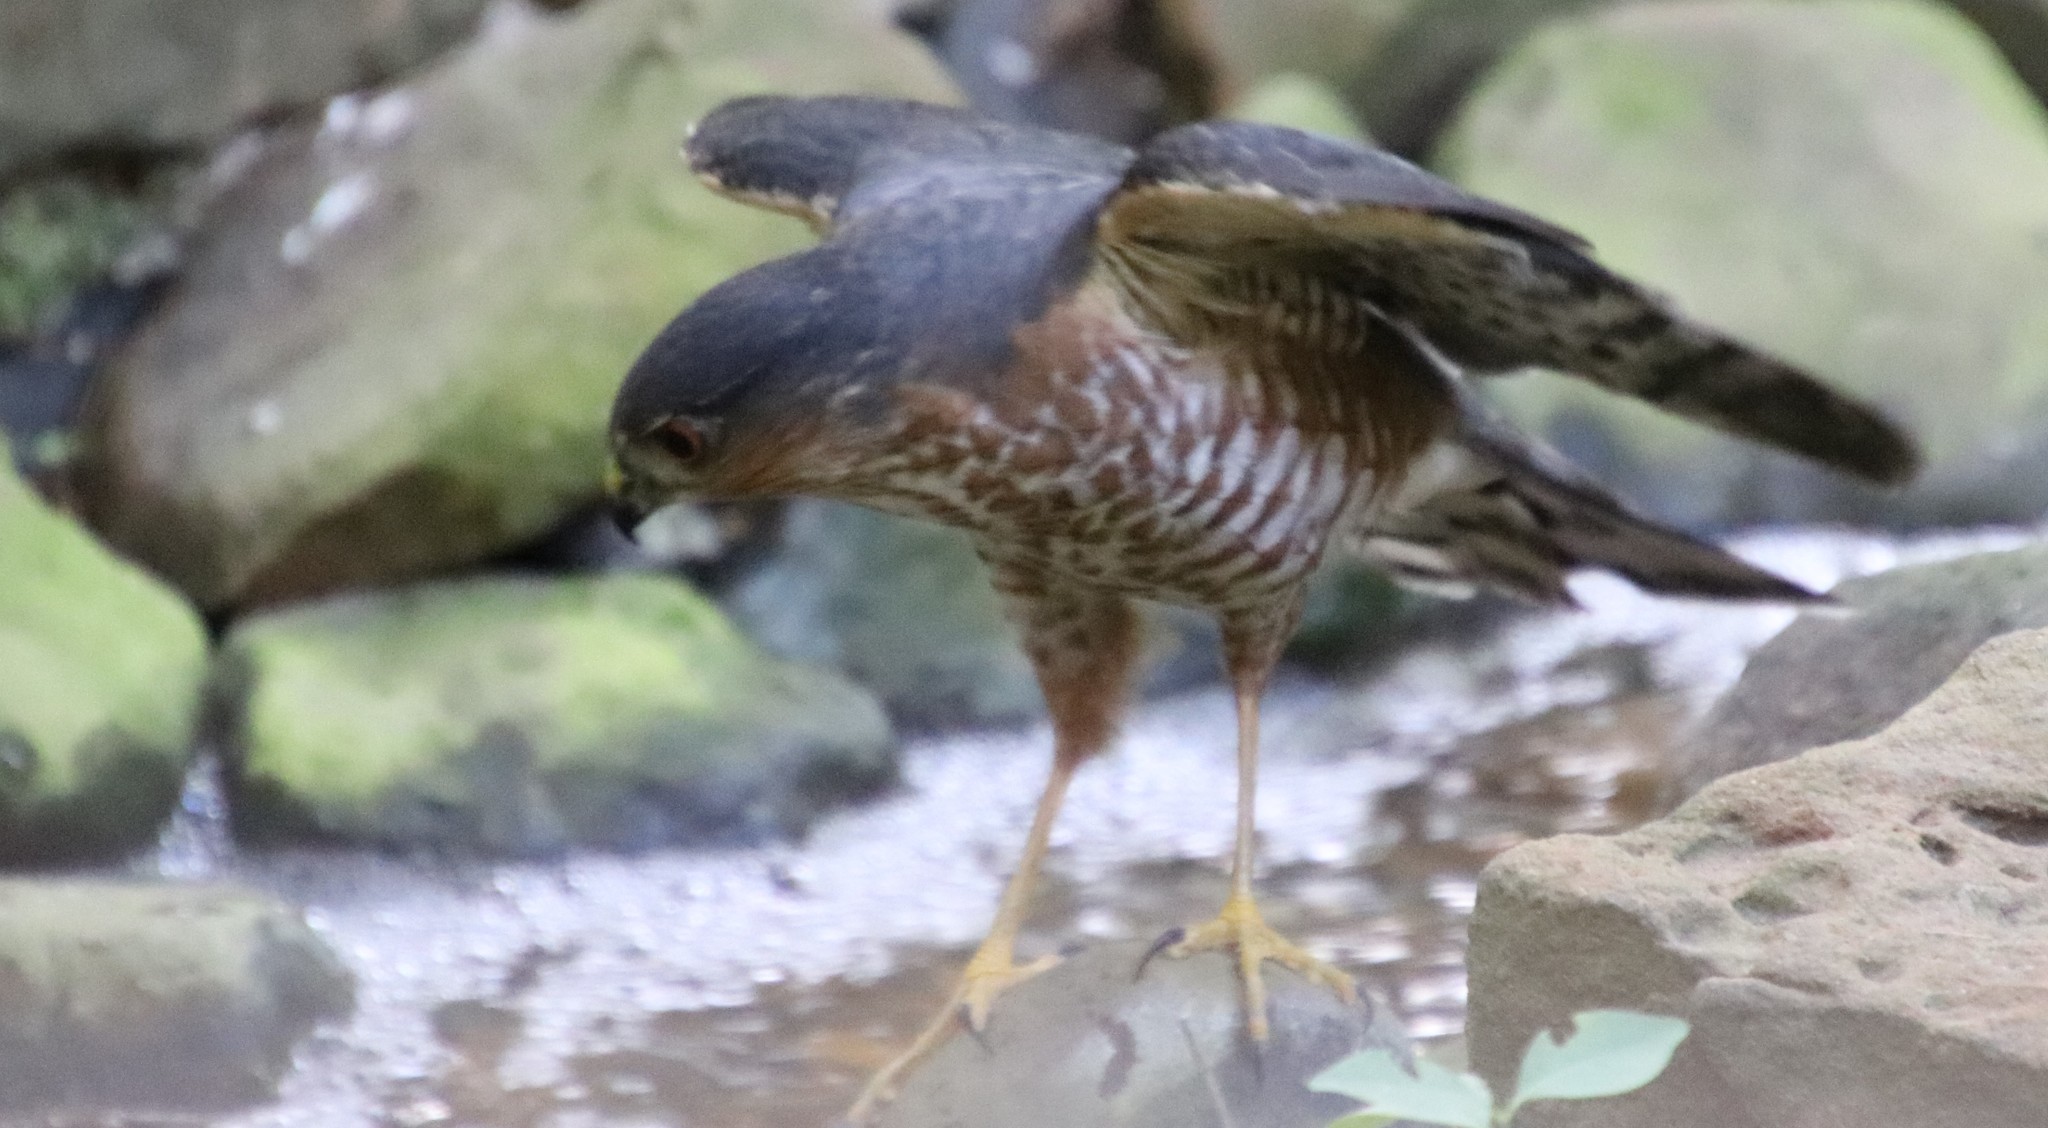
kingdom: Animalia
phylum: Chordata
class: Aves
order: Accipitriformes
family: Accipitridae
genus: Accipiter
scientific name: Accipiter striatus
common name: Sharp-shinned hawk
